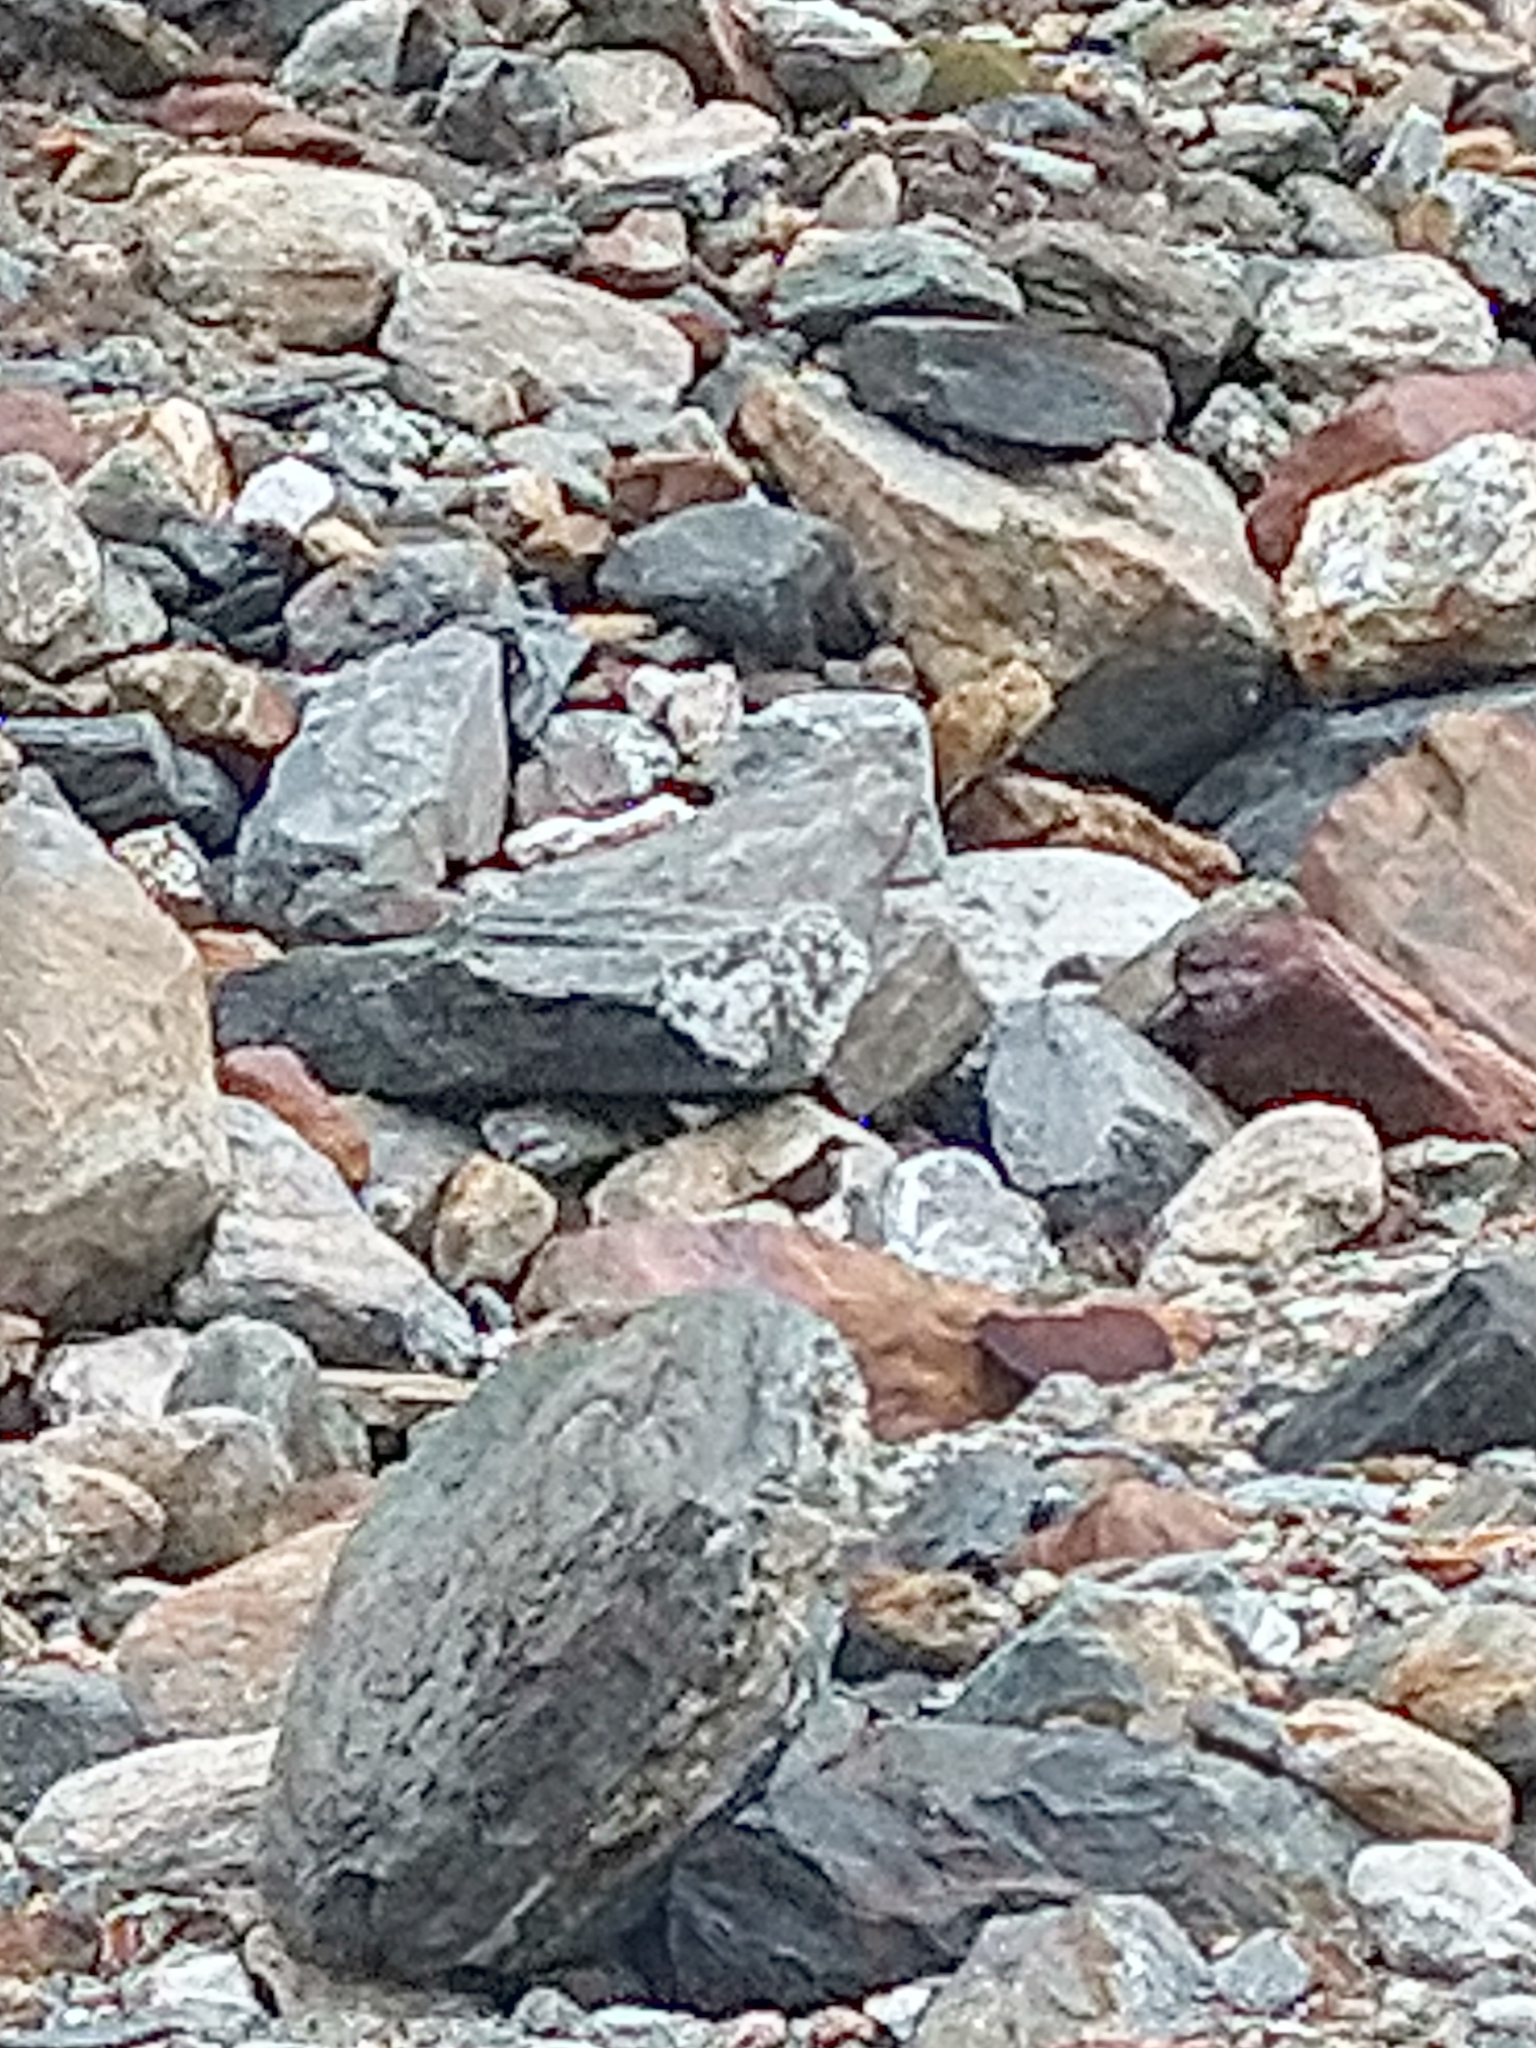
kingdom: Animalia
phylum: Chordata
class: Aves
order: Passeriformes
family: Furnariidae
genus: Cinclodes
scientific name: Cinclodes patagonicus
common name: Dark-bellied cinclodes
